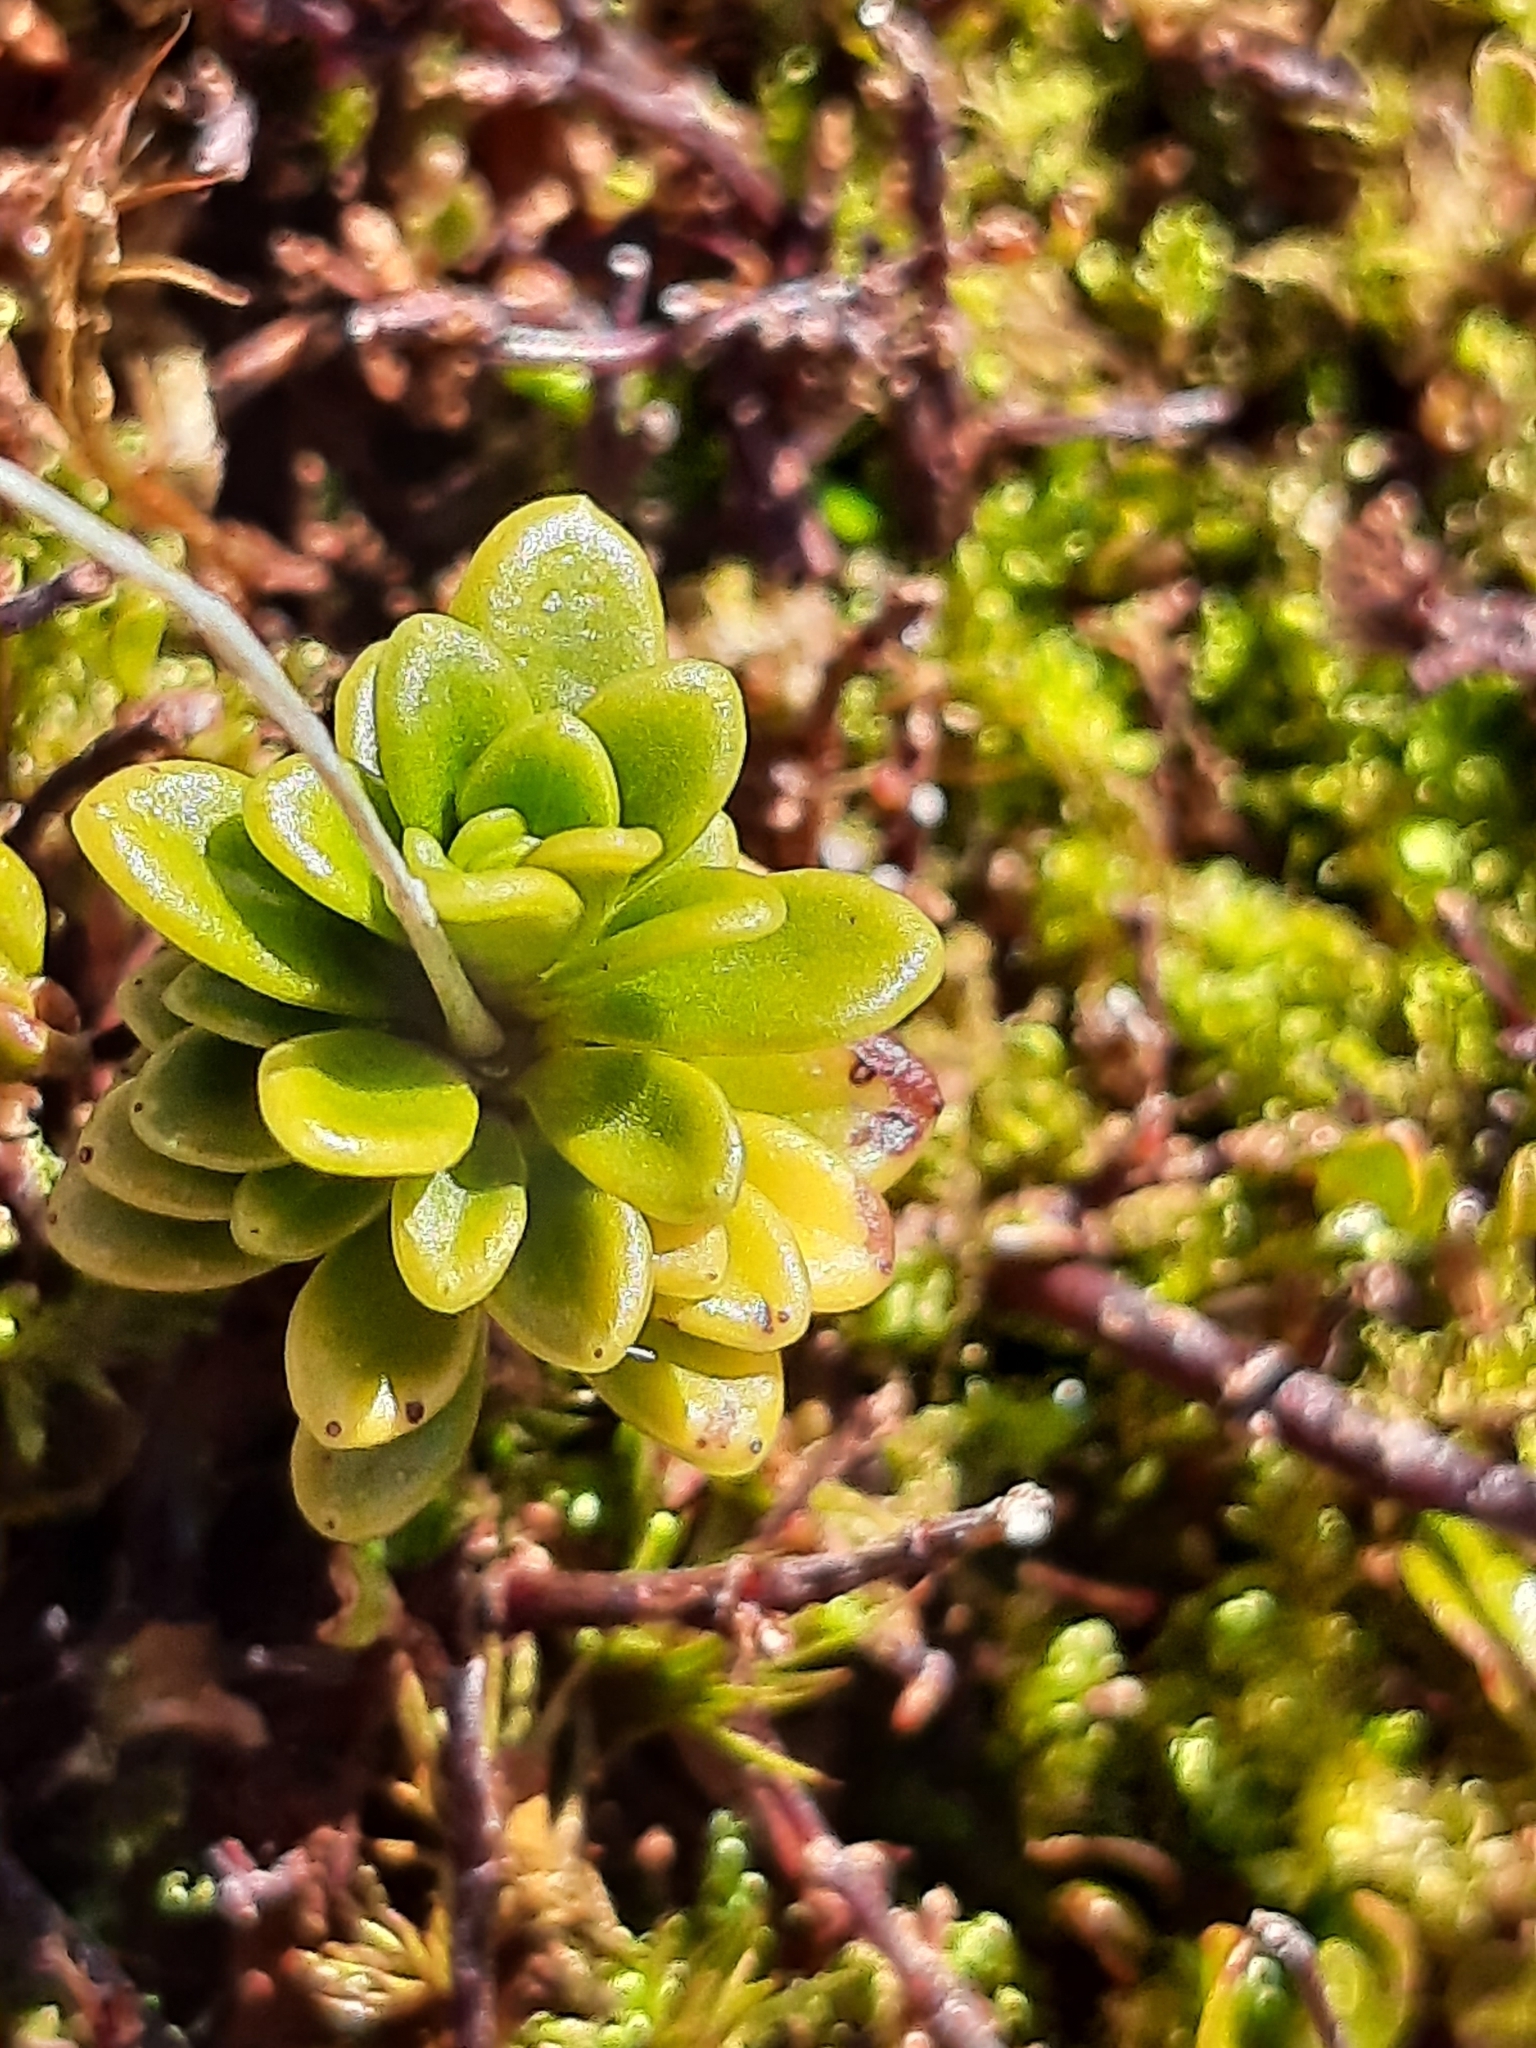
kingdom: Plantae
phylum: Tracheophyta
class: Magnoliopsida
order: Asterales
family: Stylidiaceae
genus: Forstera
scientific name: Forstera tenella
